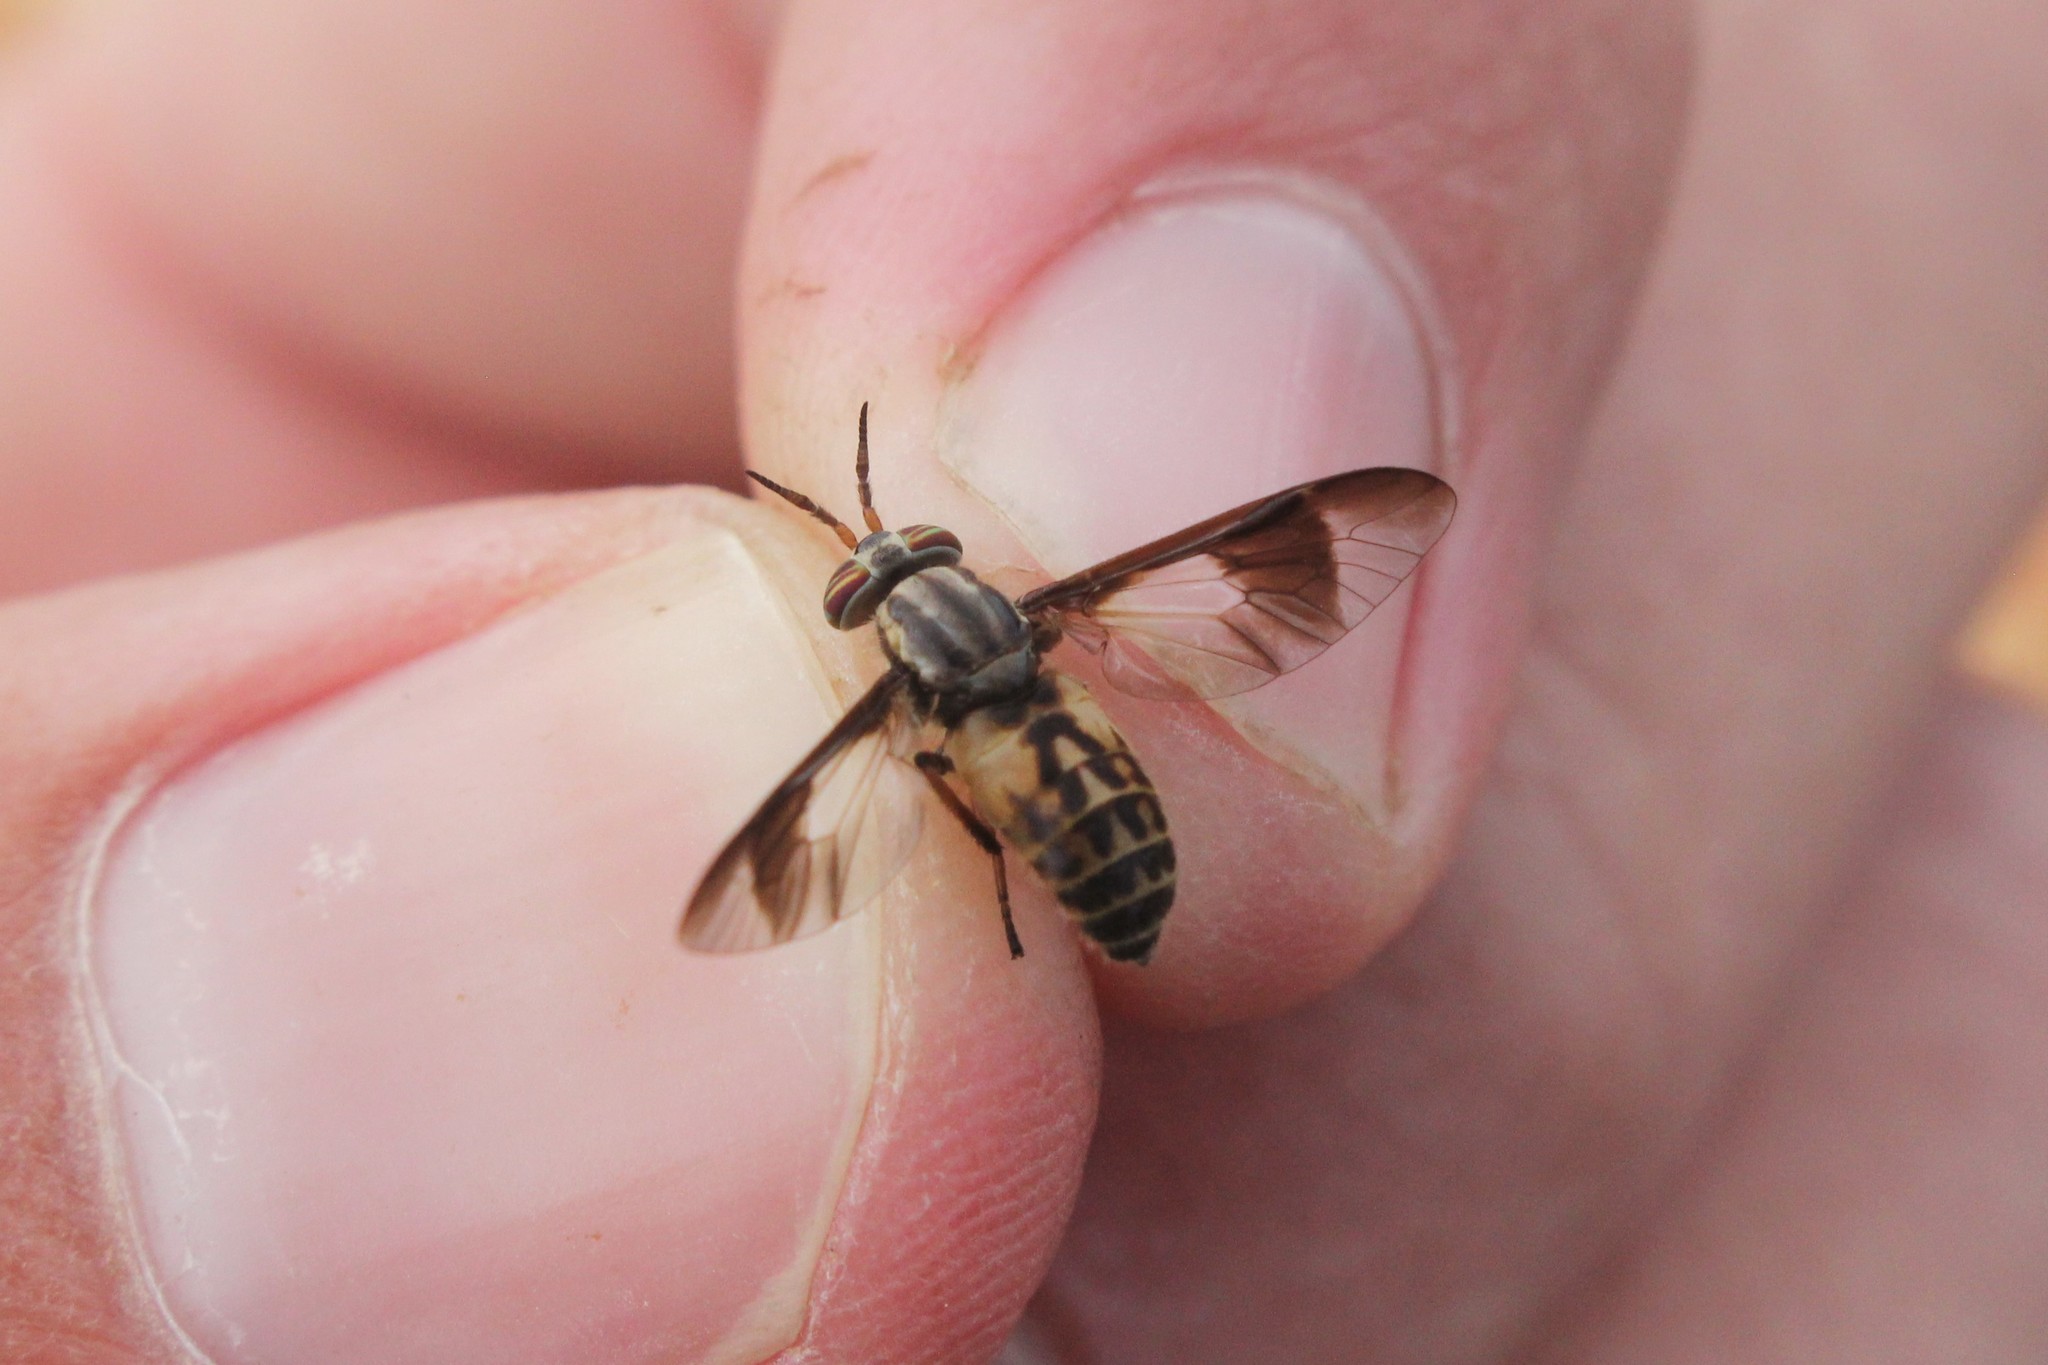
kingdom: Animalia
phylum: Arthropoda
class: Insecta
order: Diptera
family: Tabanidae
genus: Chrysops
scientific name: Chrysops montanus
